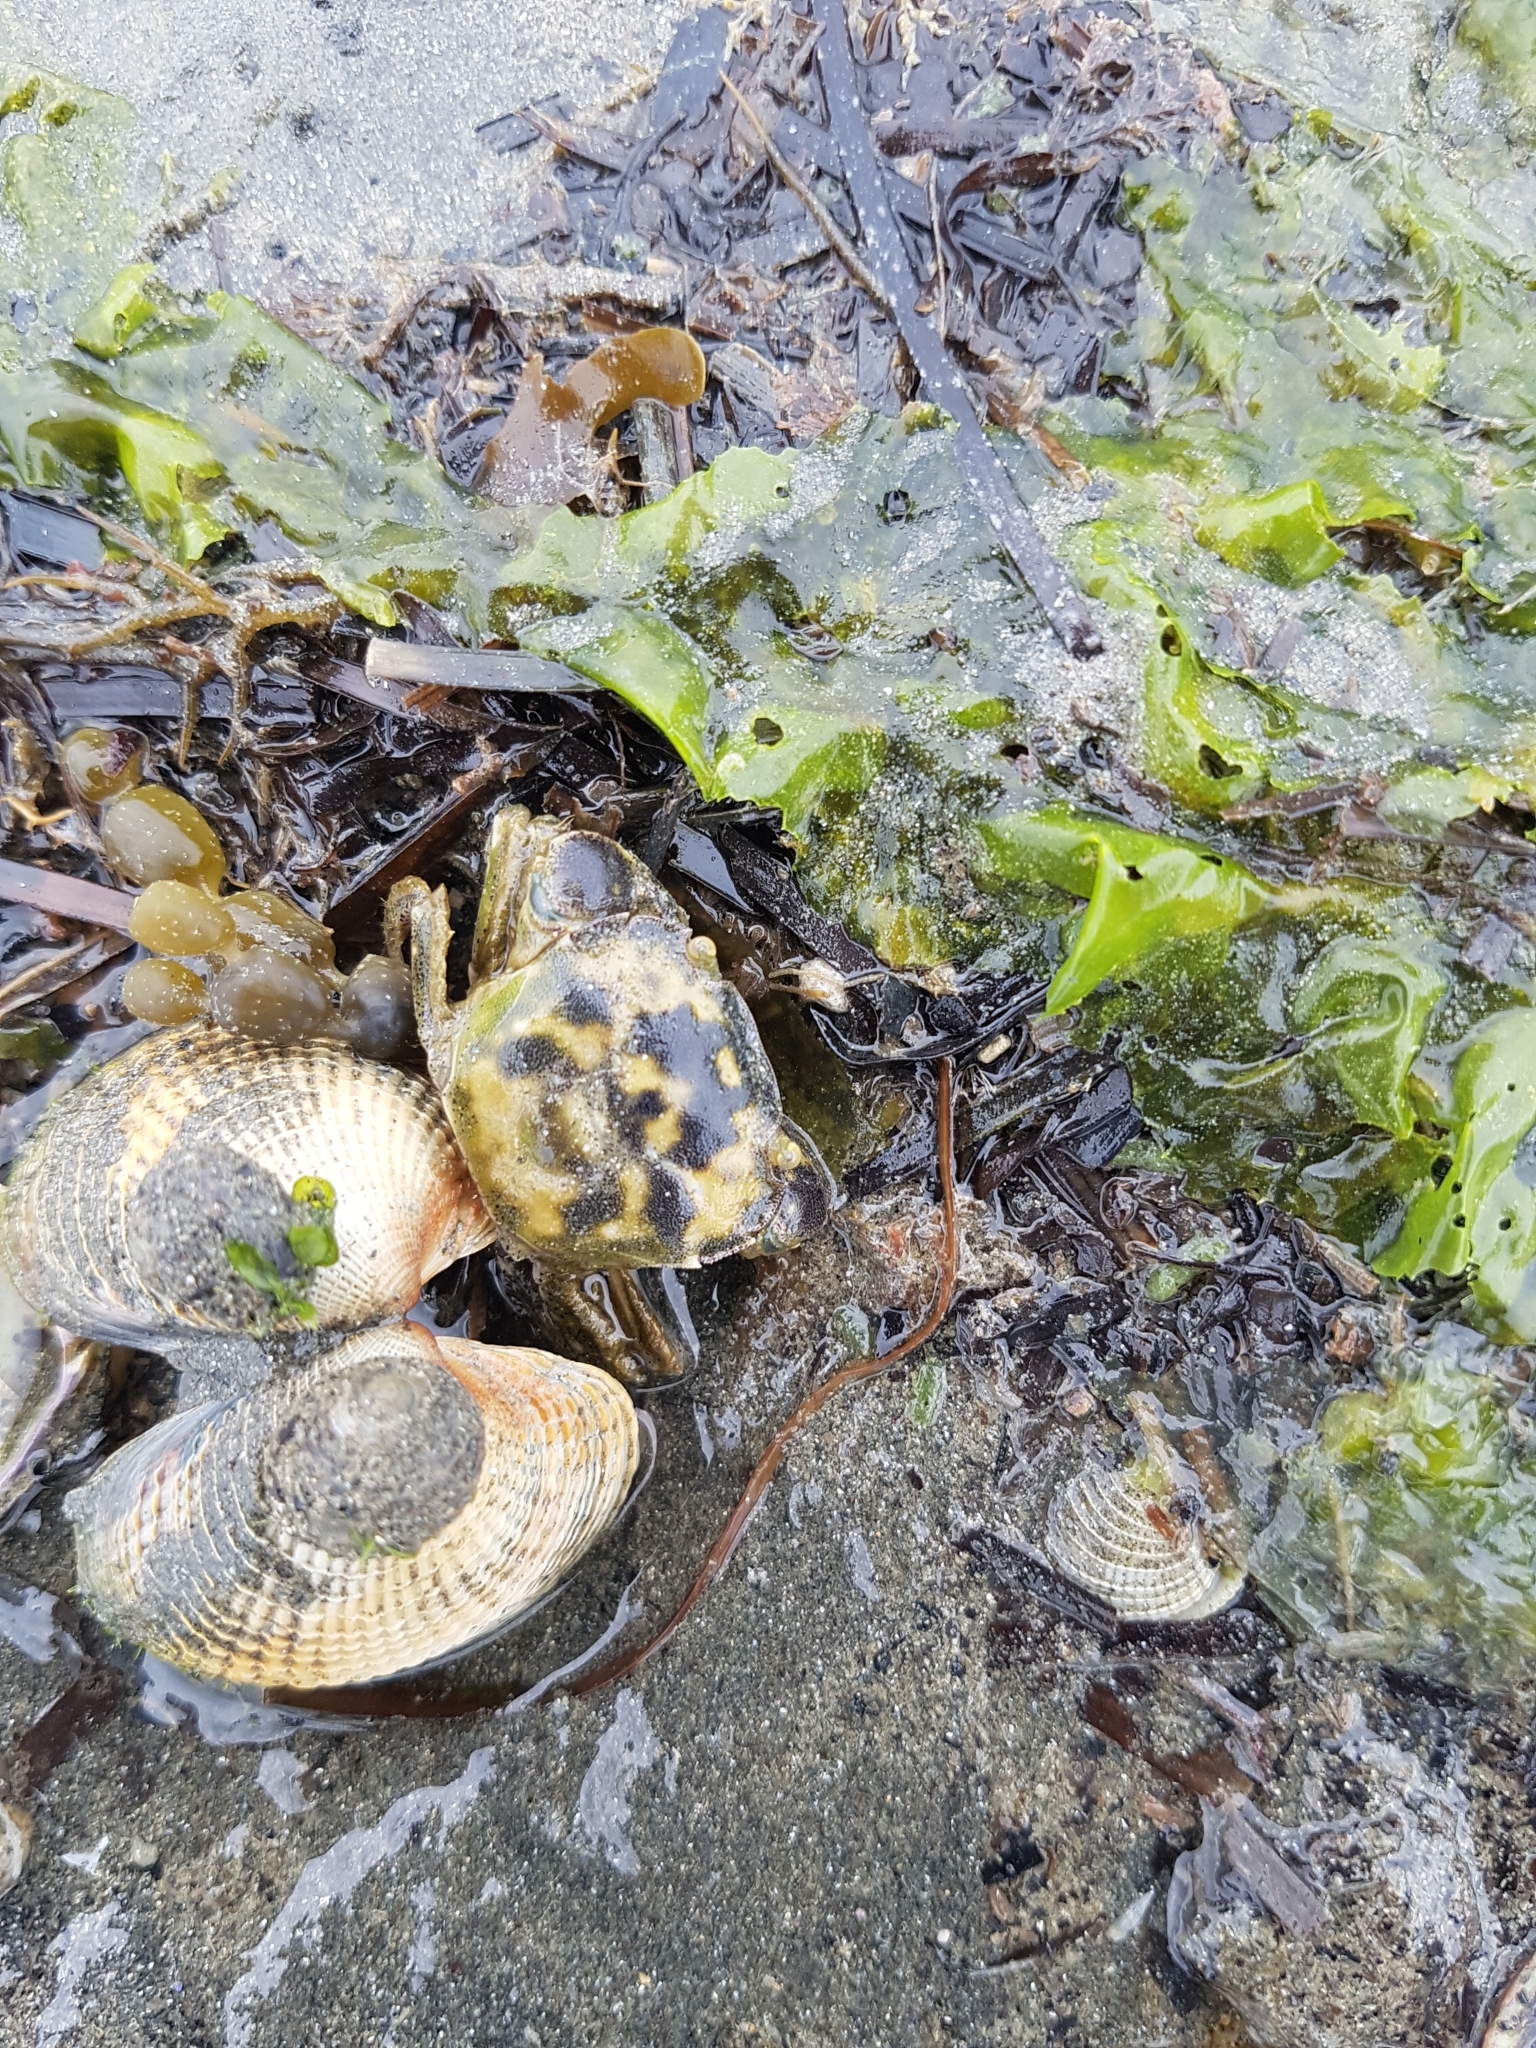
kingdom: Animalia
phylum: Arthropoda
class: Malacostraca
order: Decapoda
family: Varunidae
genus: Hemigrapsus
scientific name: Hemigrapsus crenulatus
